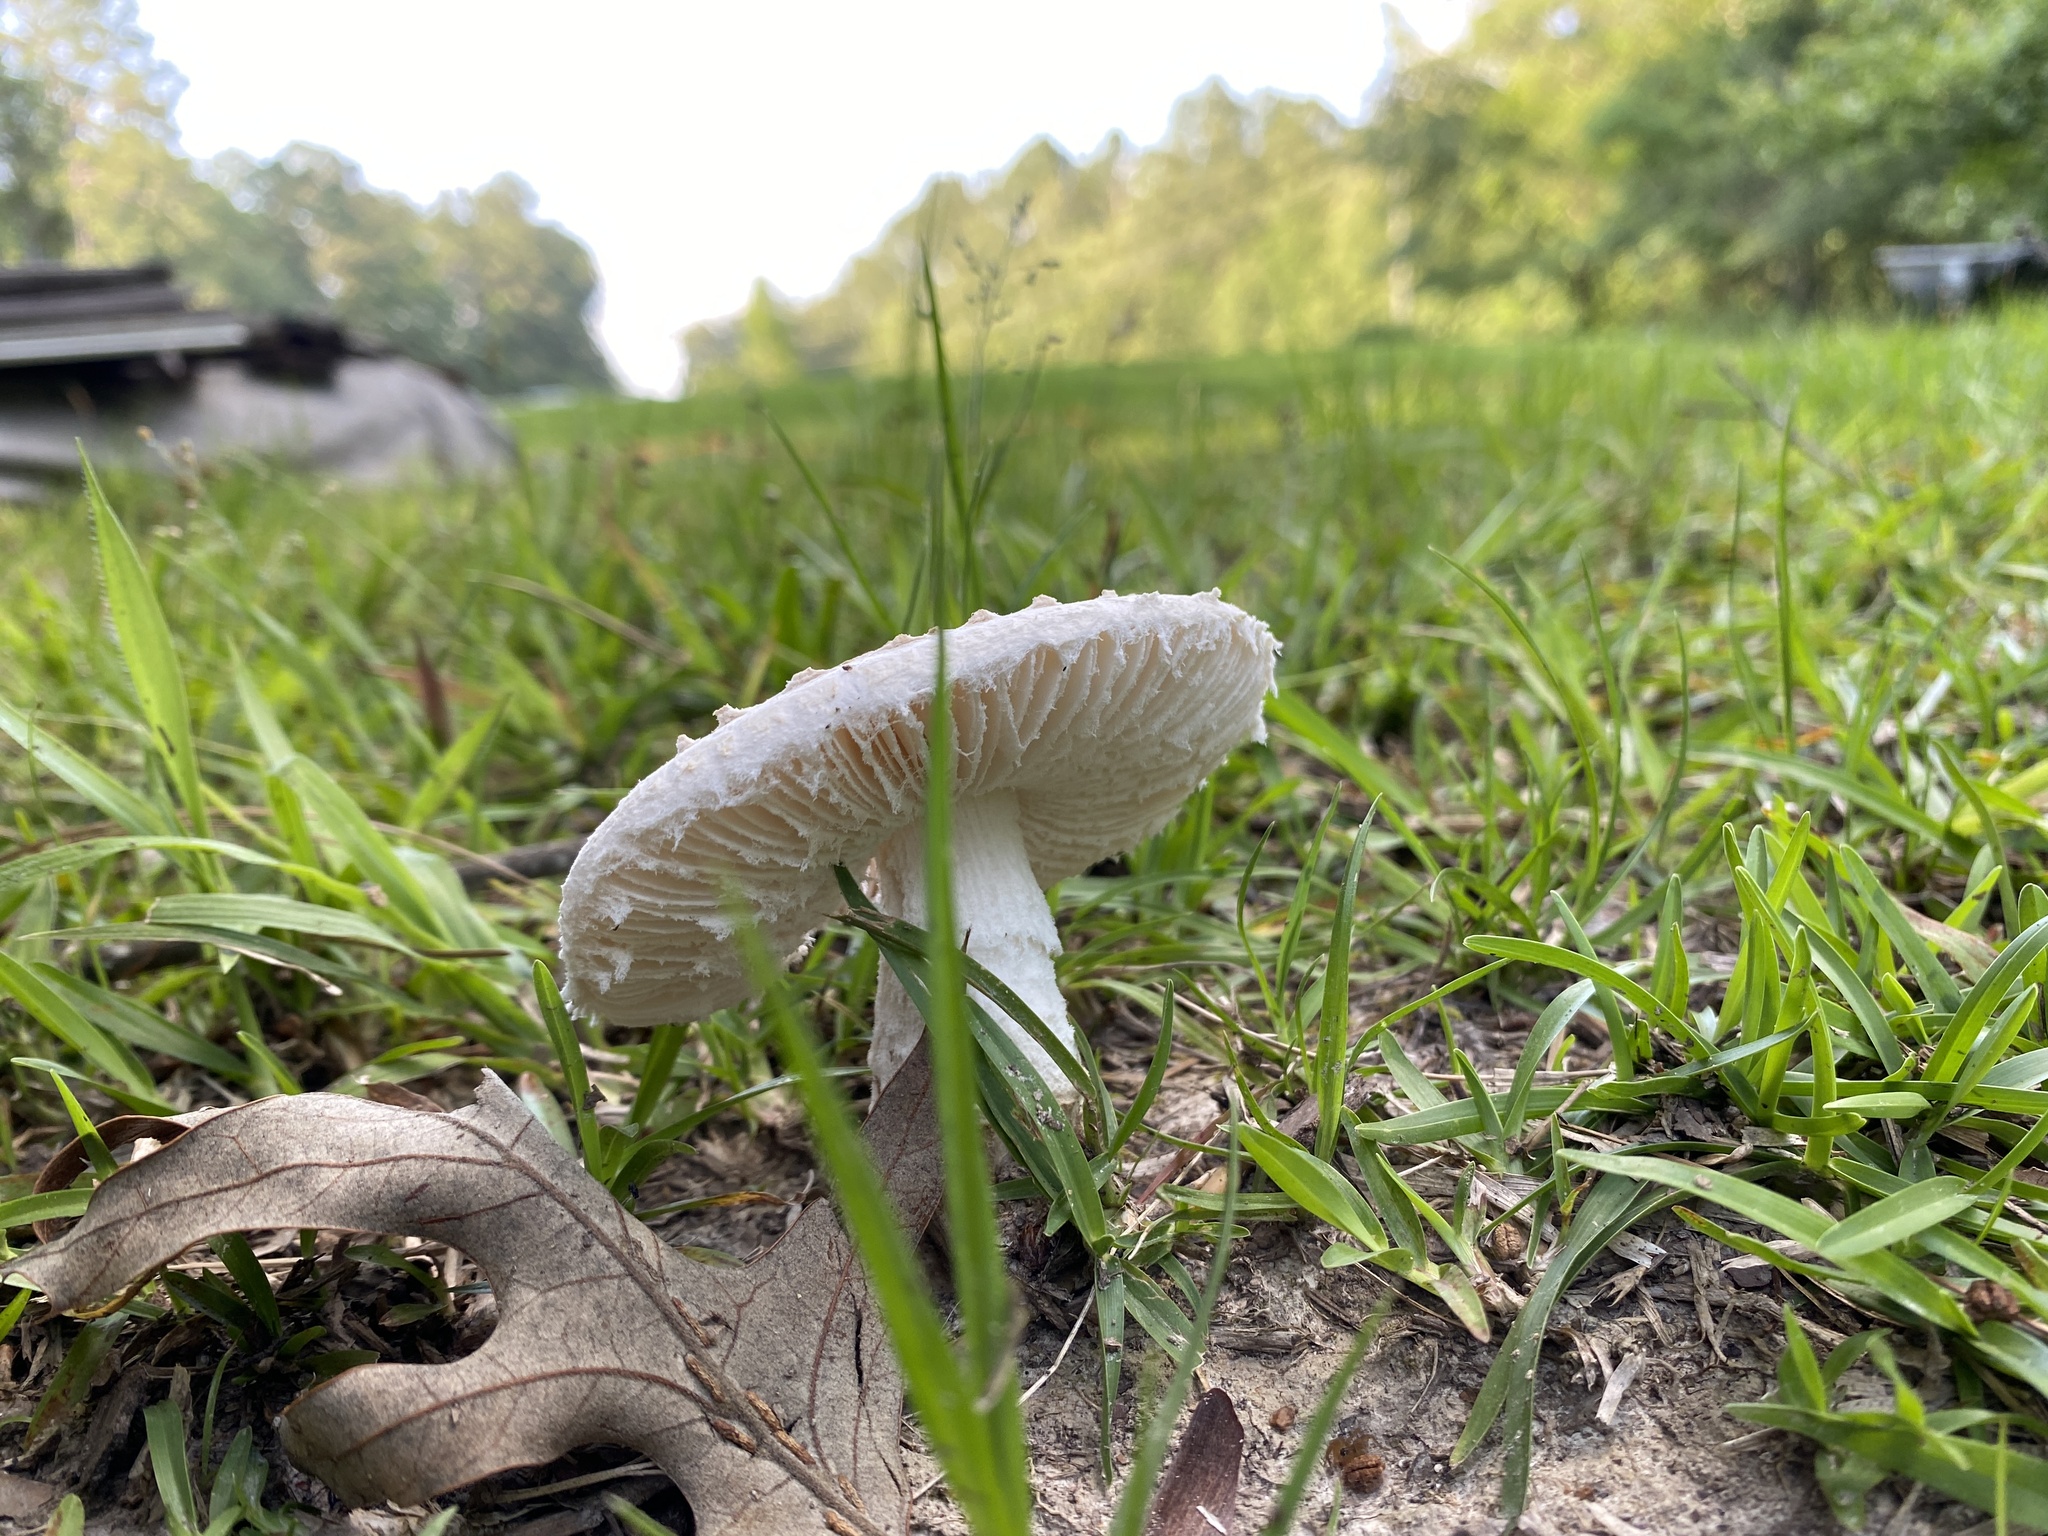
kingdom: Fungi
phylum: Basidiomycota
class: Agaricomycetes
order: Agaricales
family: Amanitaceae
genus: Aspidella
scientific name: Aspidella hesleri
